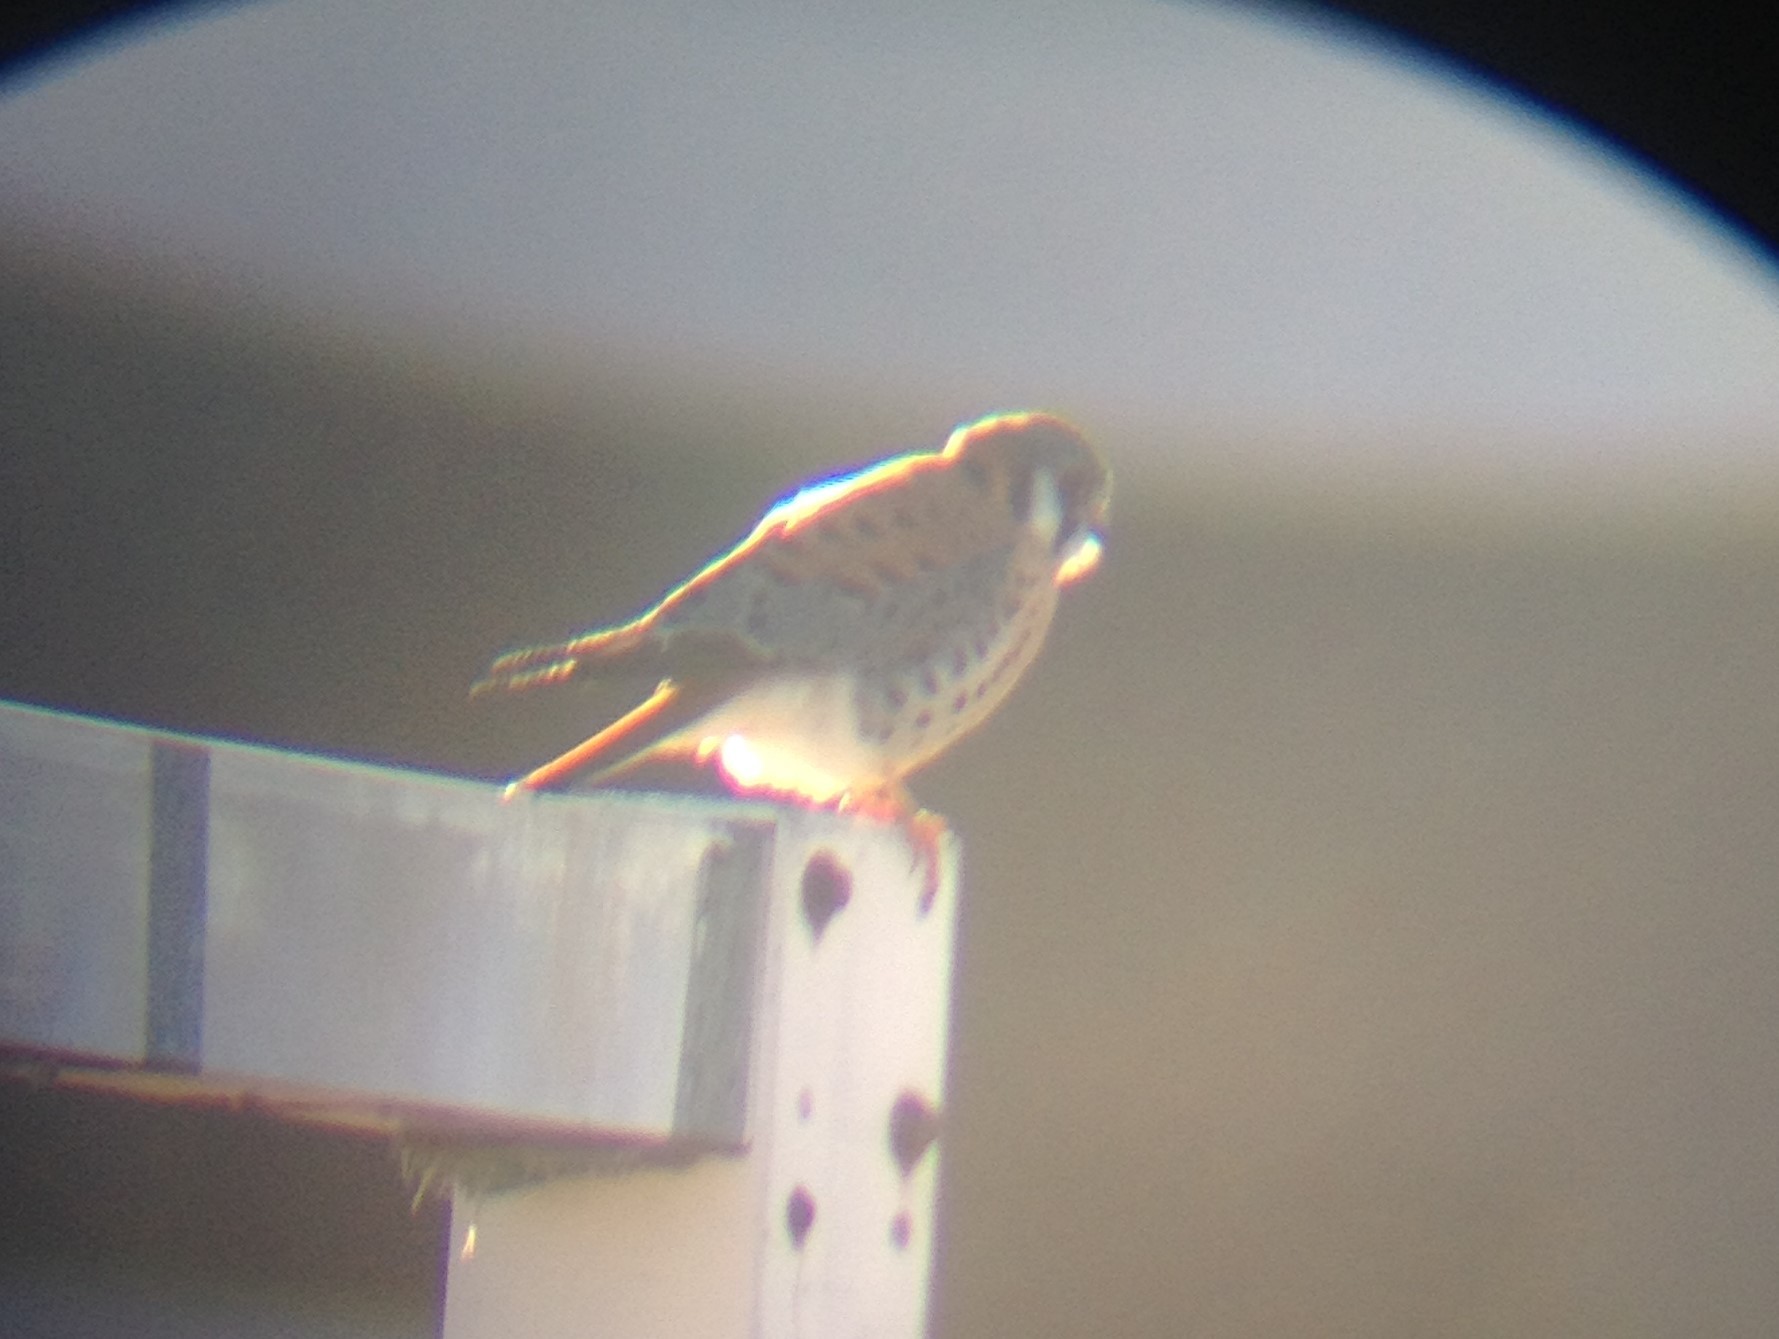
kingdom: Animalia
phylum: Chordata
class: Aves
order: Falconiformes
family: Falconidae
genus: Falco
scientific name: Falco sparverius
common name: American kestrel
